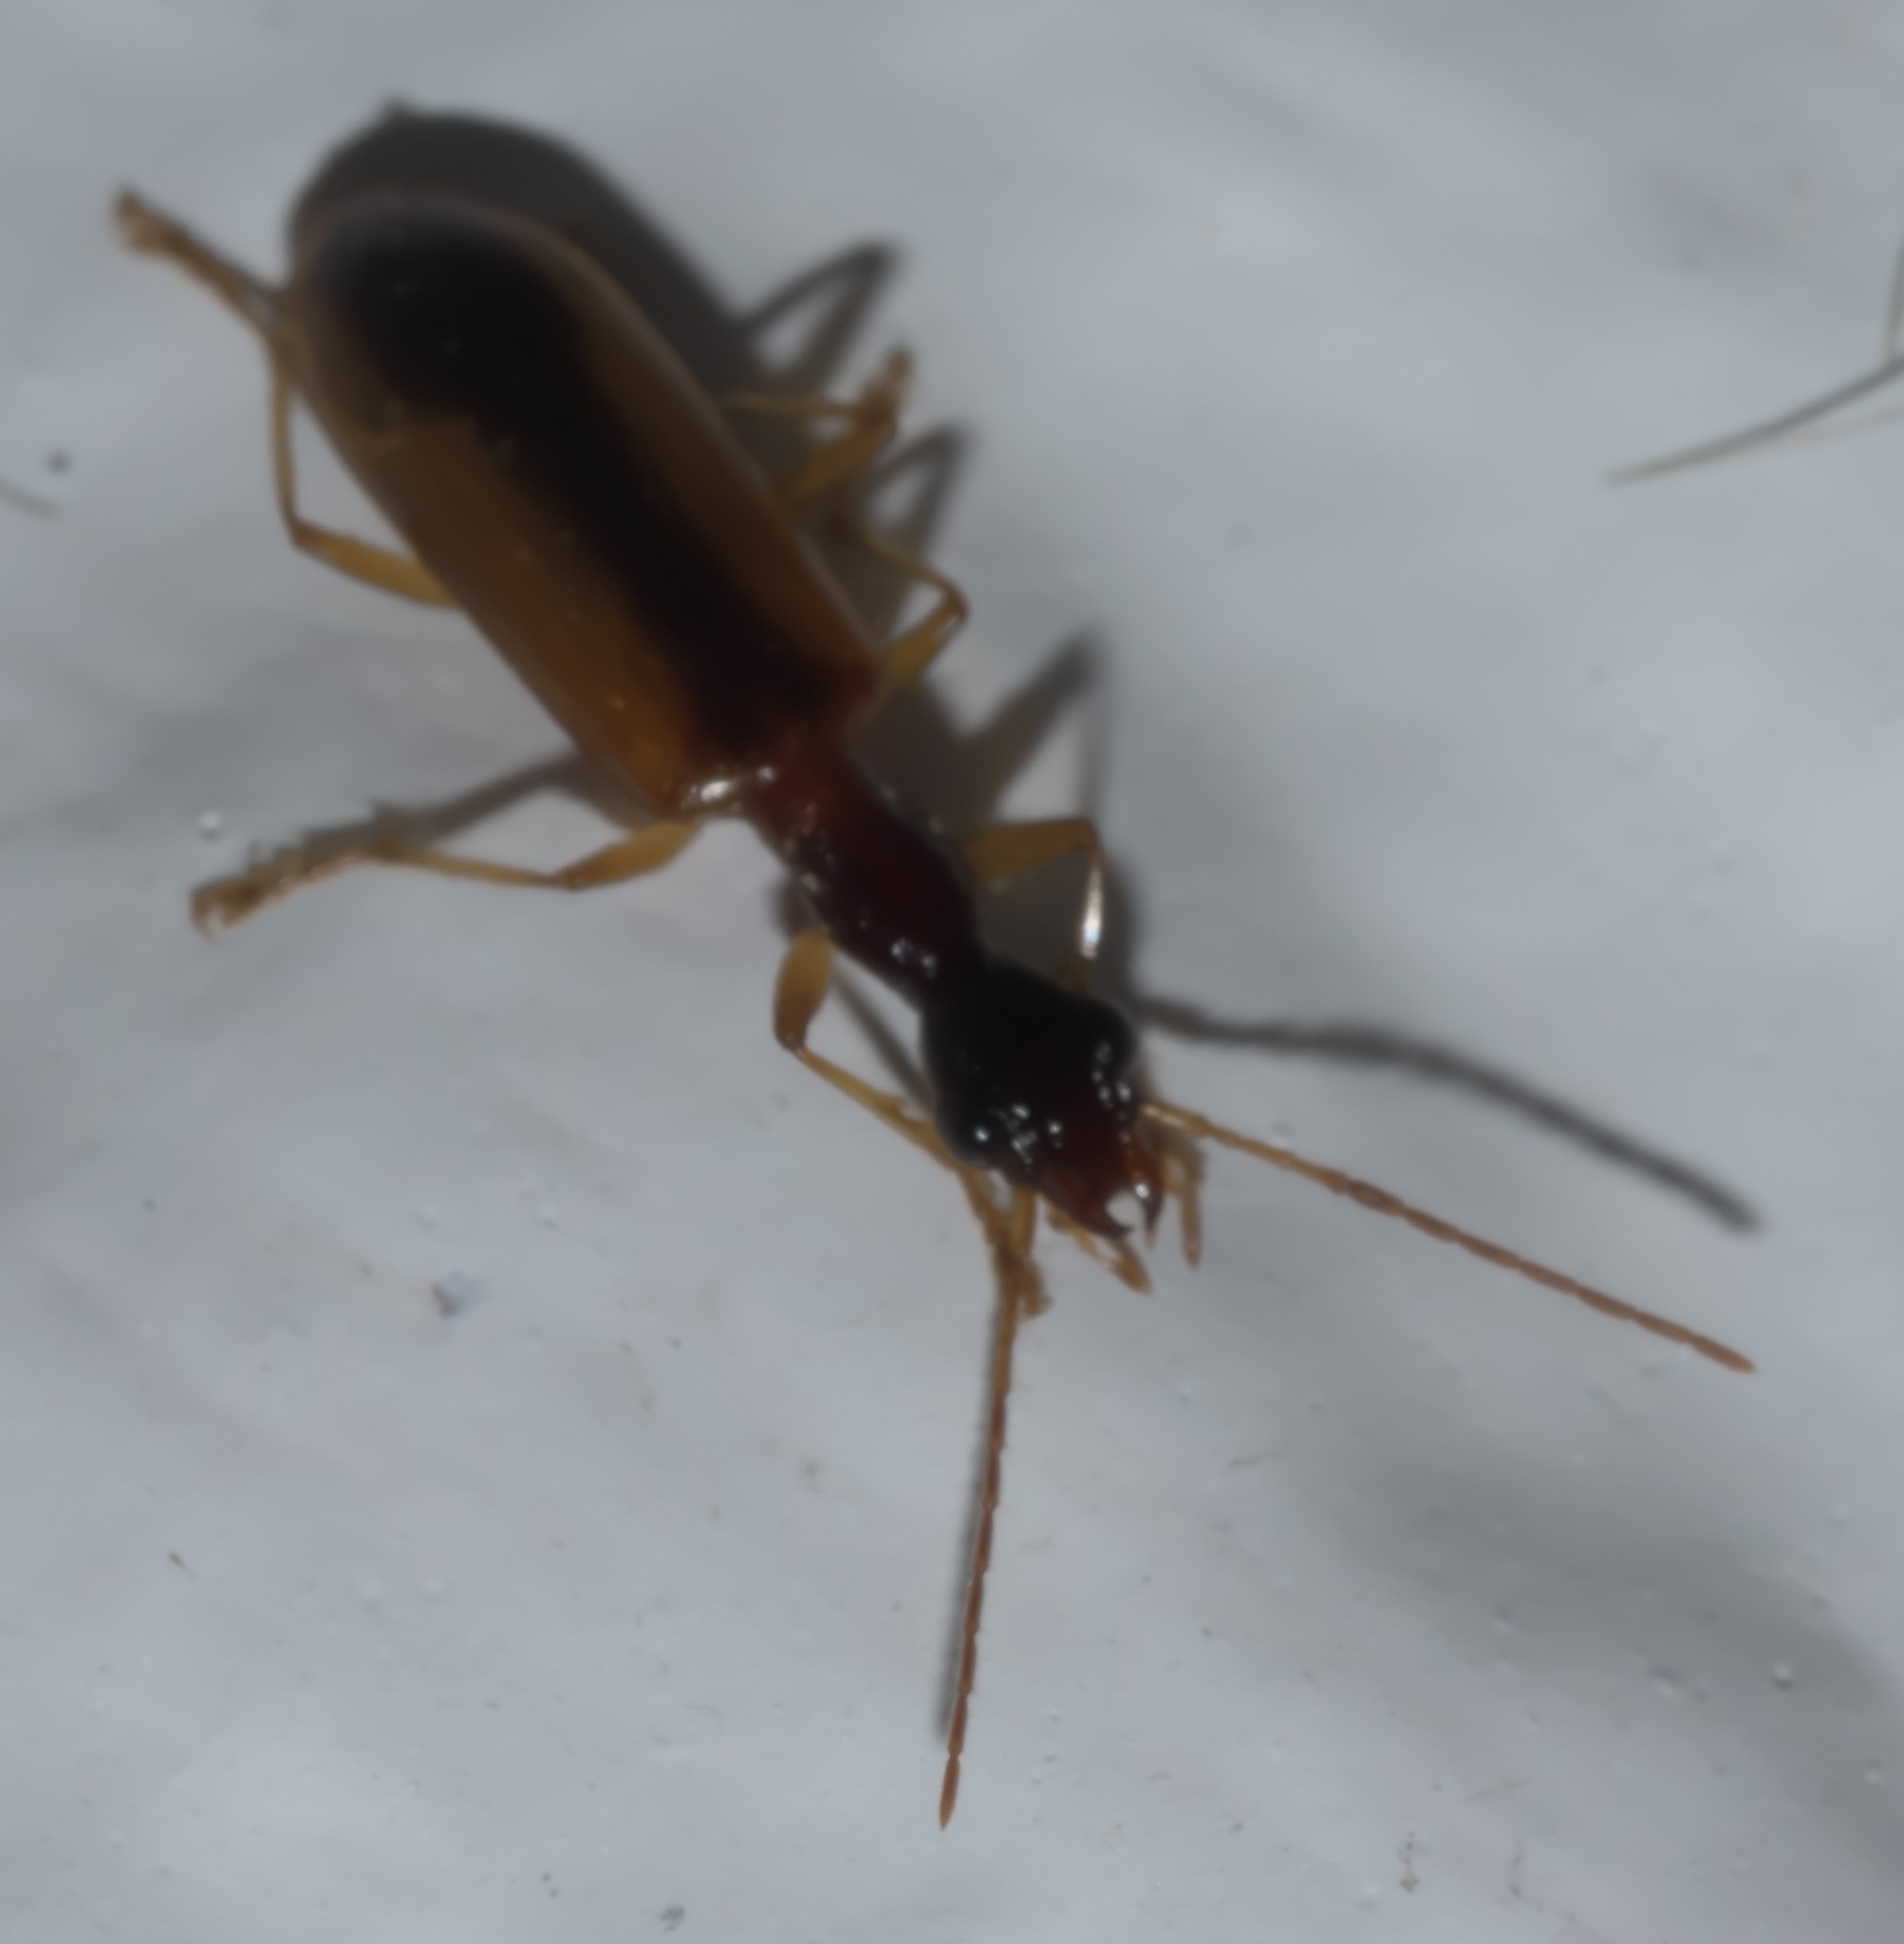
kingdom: Animalia
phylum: Arthropoda
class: Insecta
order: Coleoptera
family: Carabidae
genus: Leptotrachelus
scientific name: Leptotrachelus dorsalis
